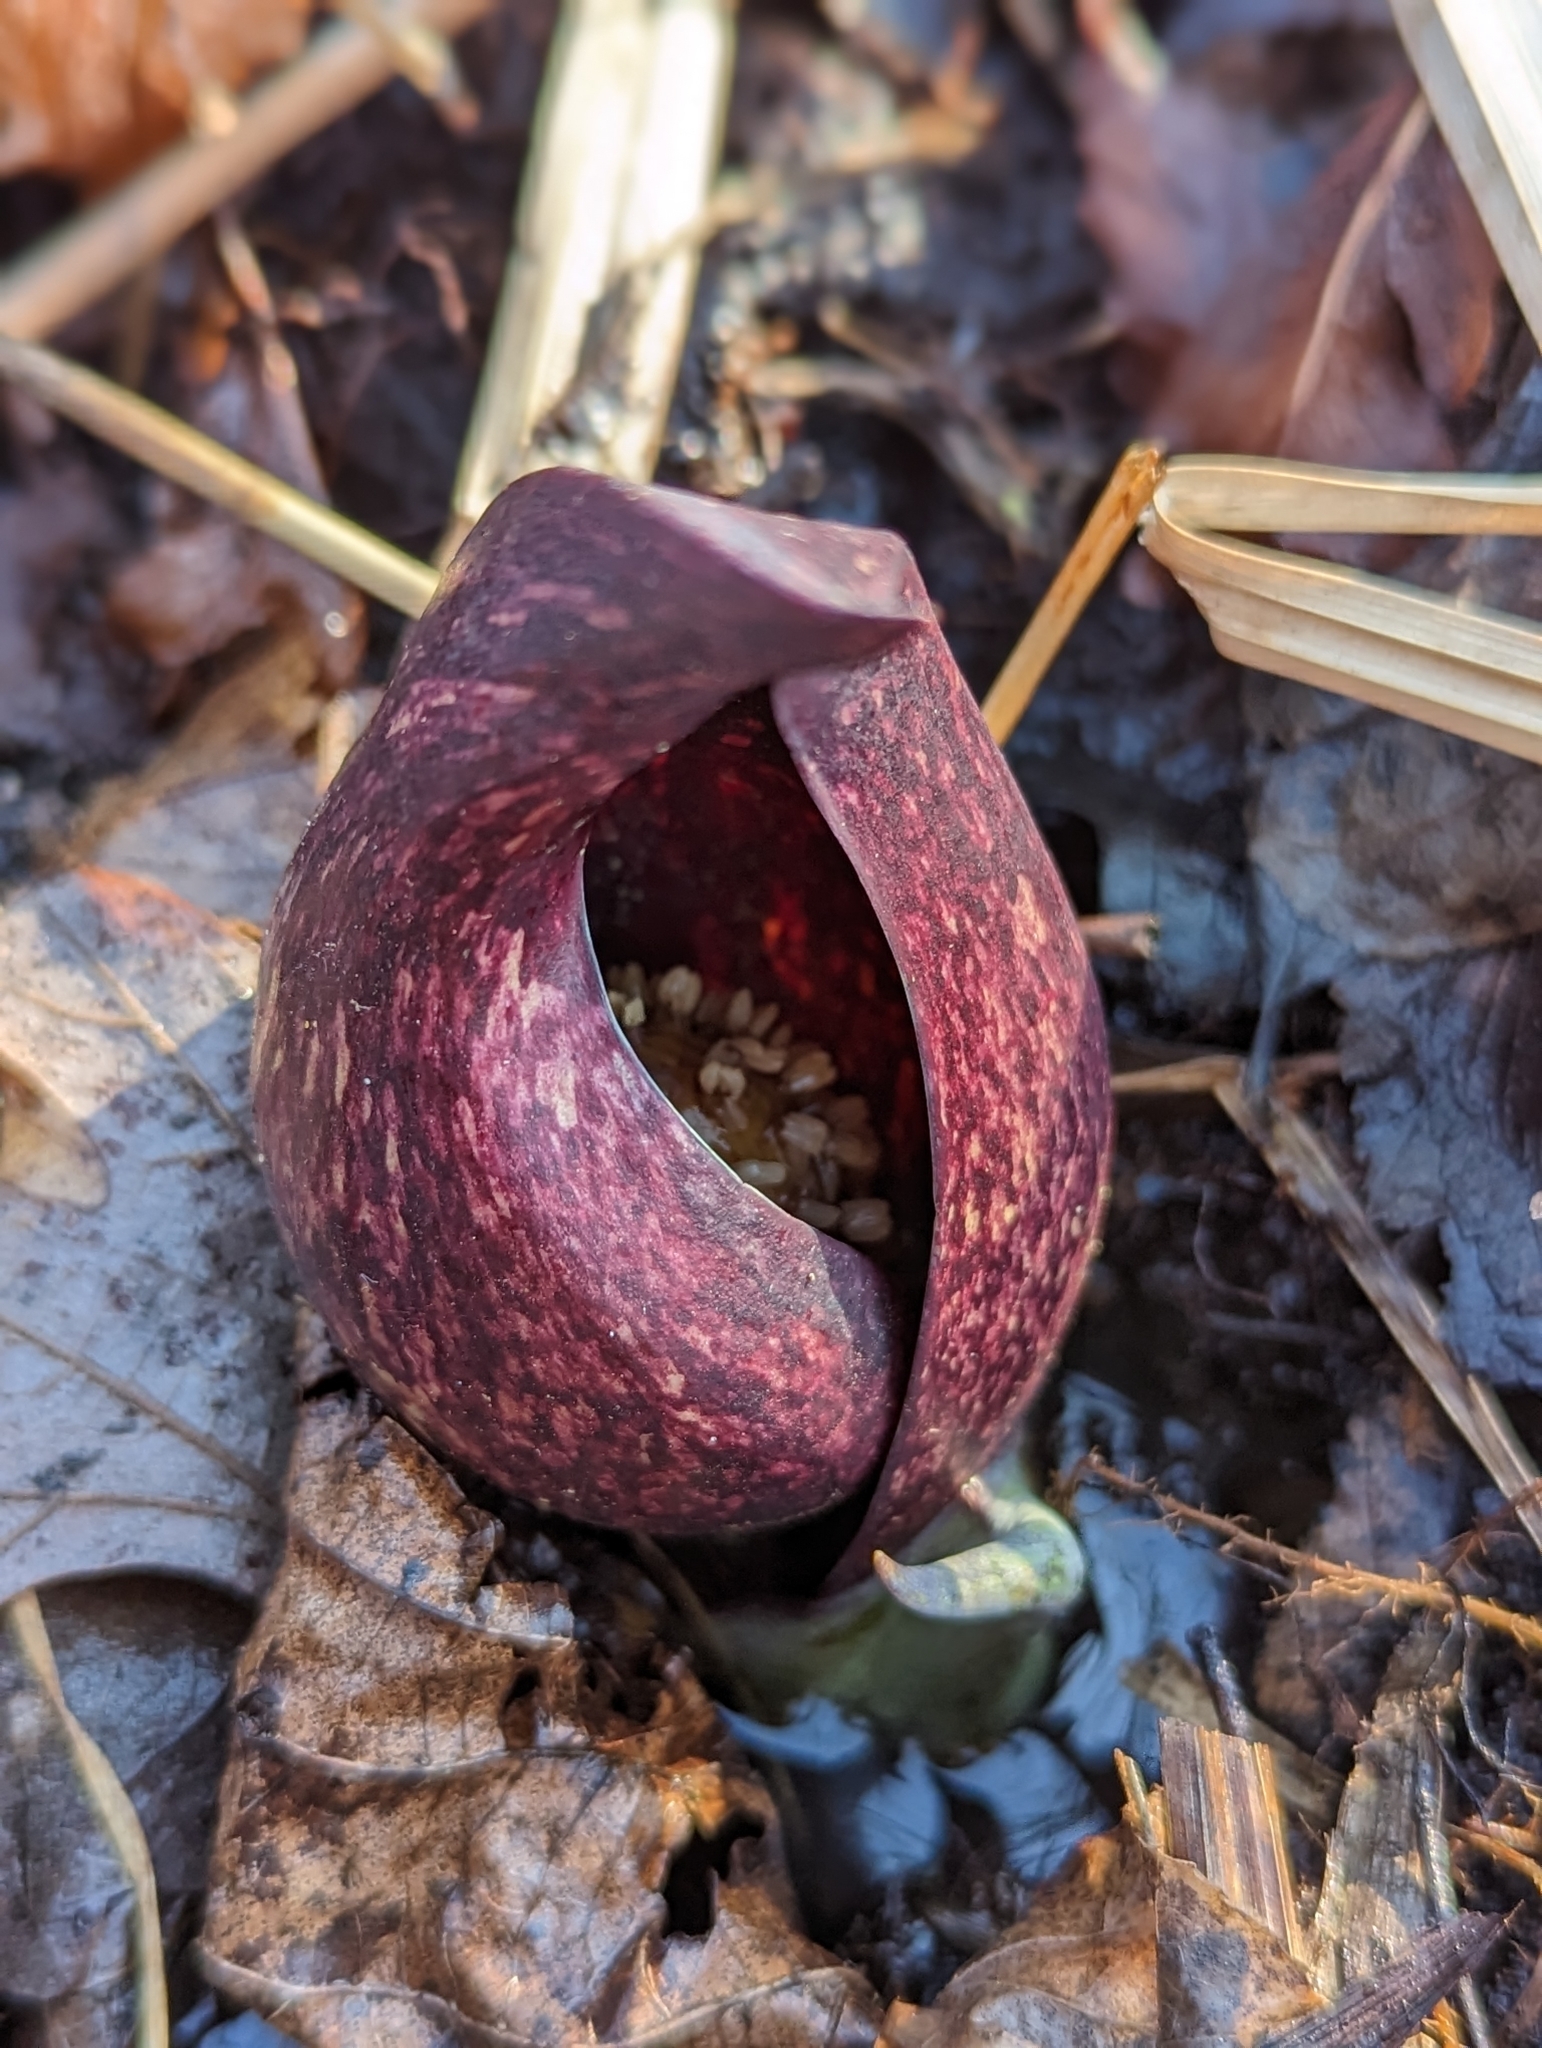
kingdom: Plantae
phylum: Tracheophyta
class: Liliopsida
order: Alismatales
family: Araceae
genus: Symplocarpus
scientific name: Symplocarpus foetidus
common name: Eastern skunk cabbage
